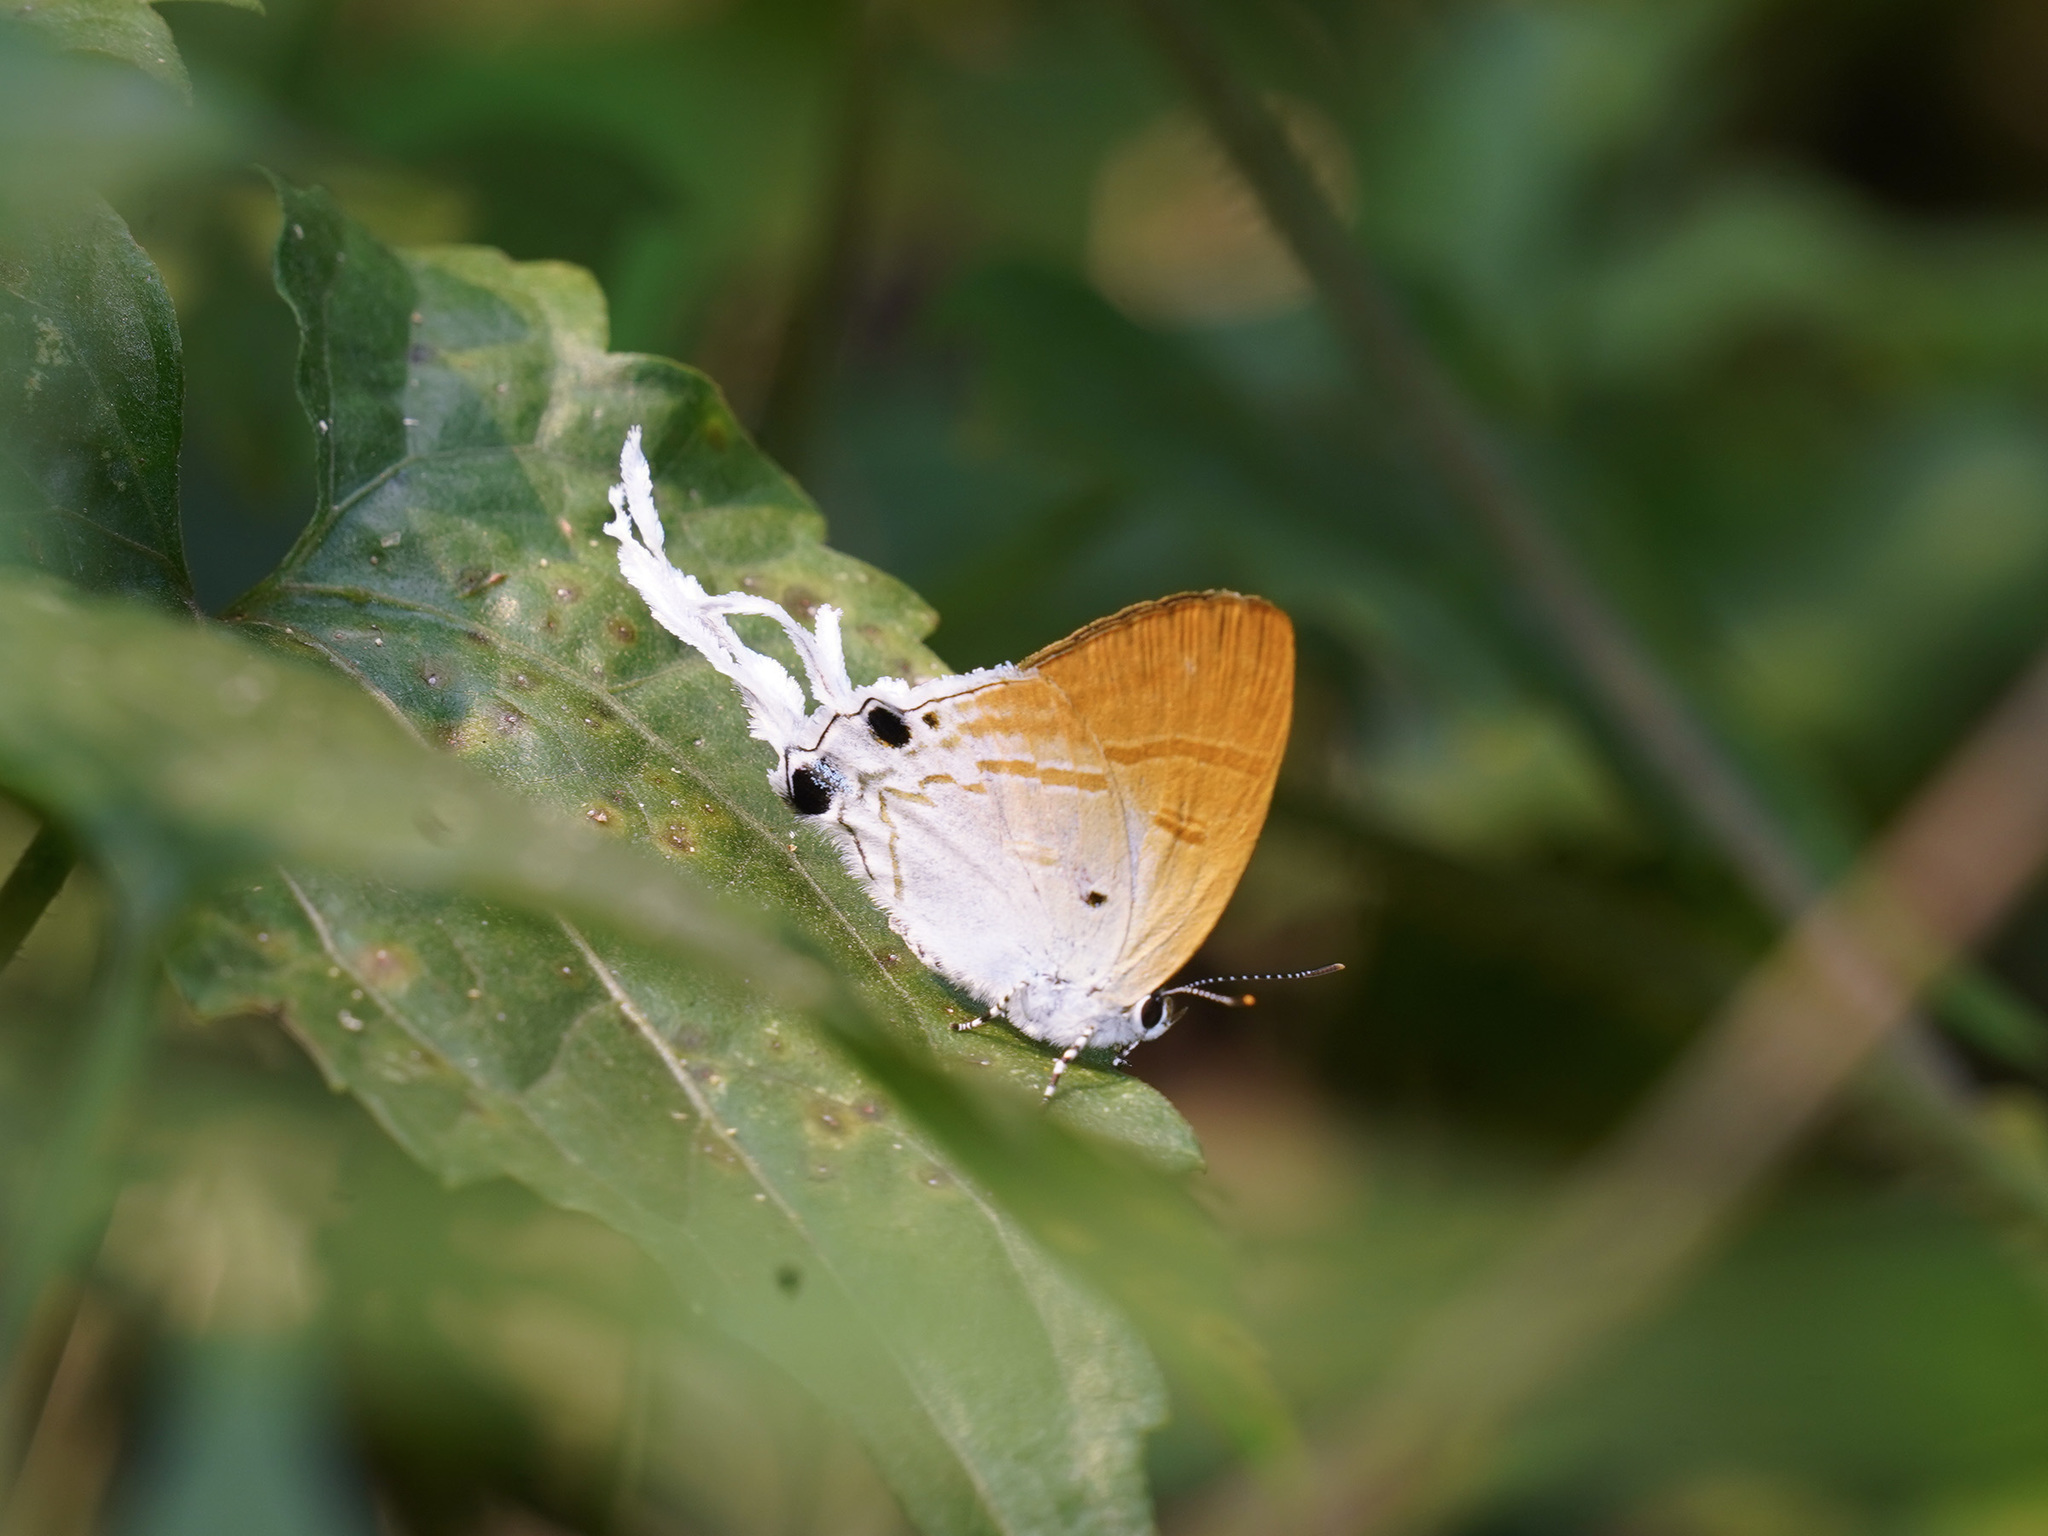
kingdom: Animalia
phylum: Arthropoda
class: Insecta
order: Lepidoptera
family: Lycaenidae
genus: Zeltus
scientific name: Zeltus amasa
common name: Fluffy tit
